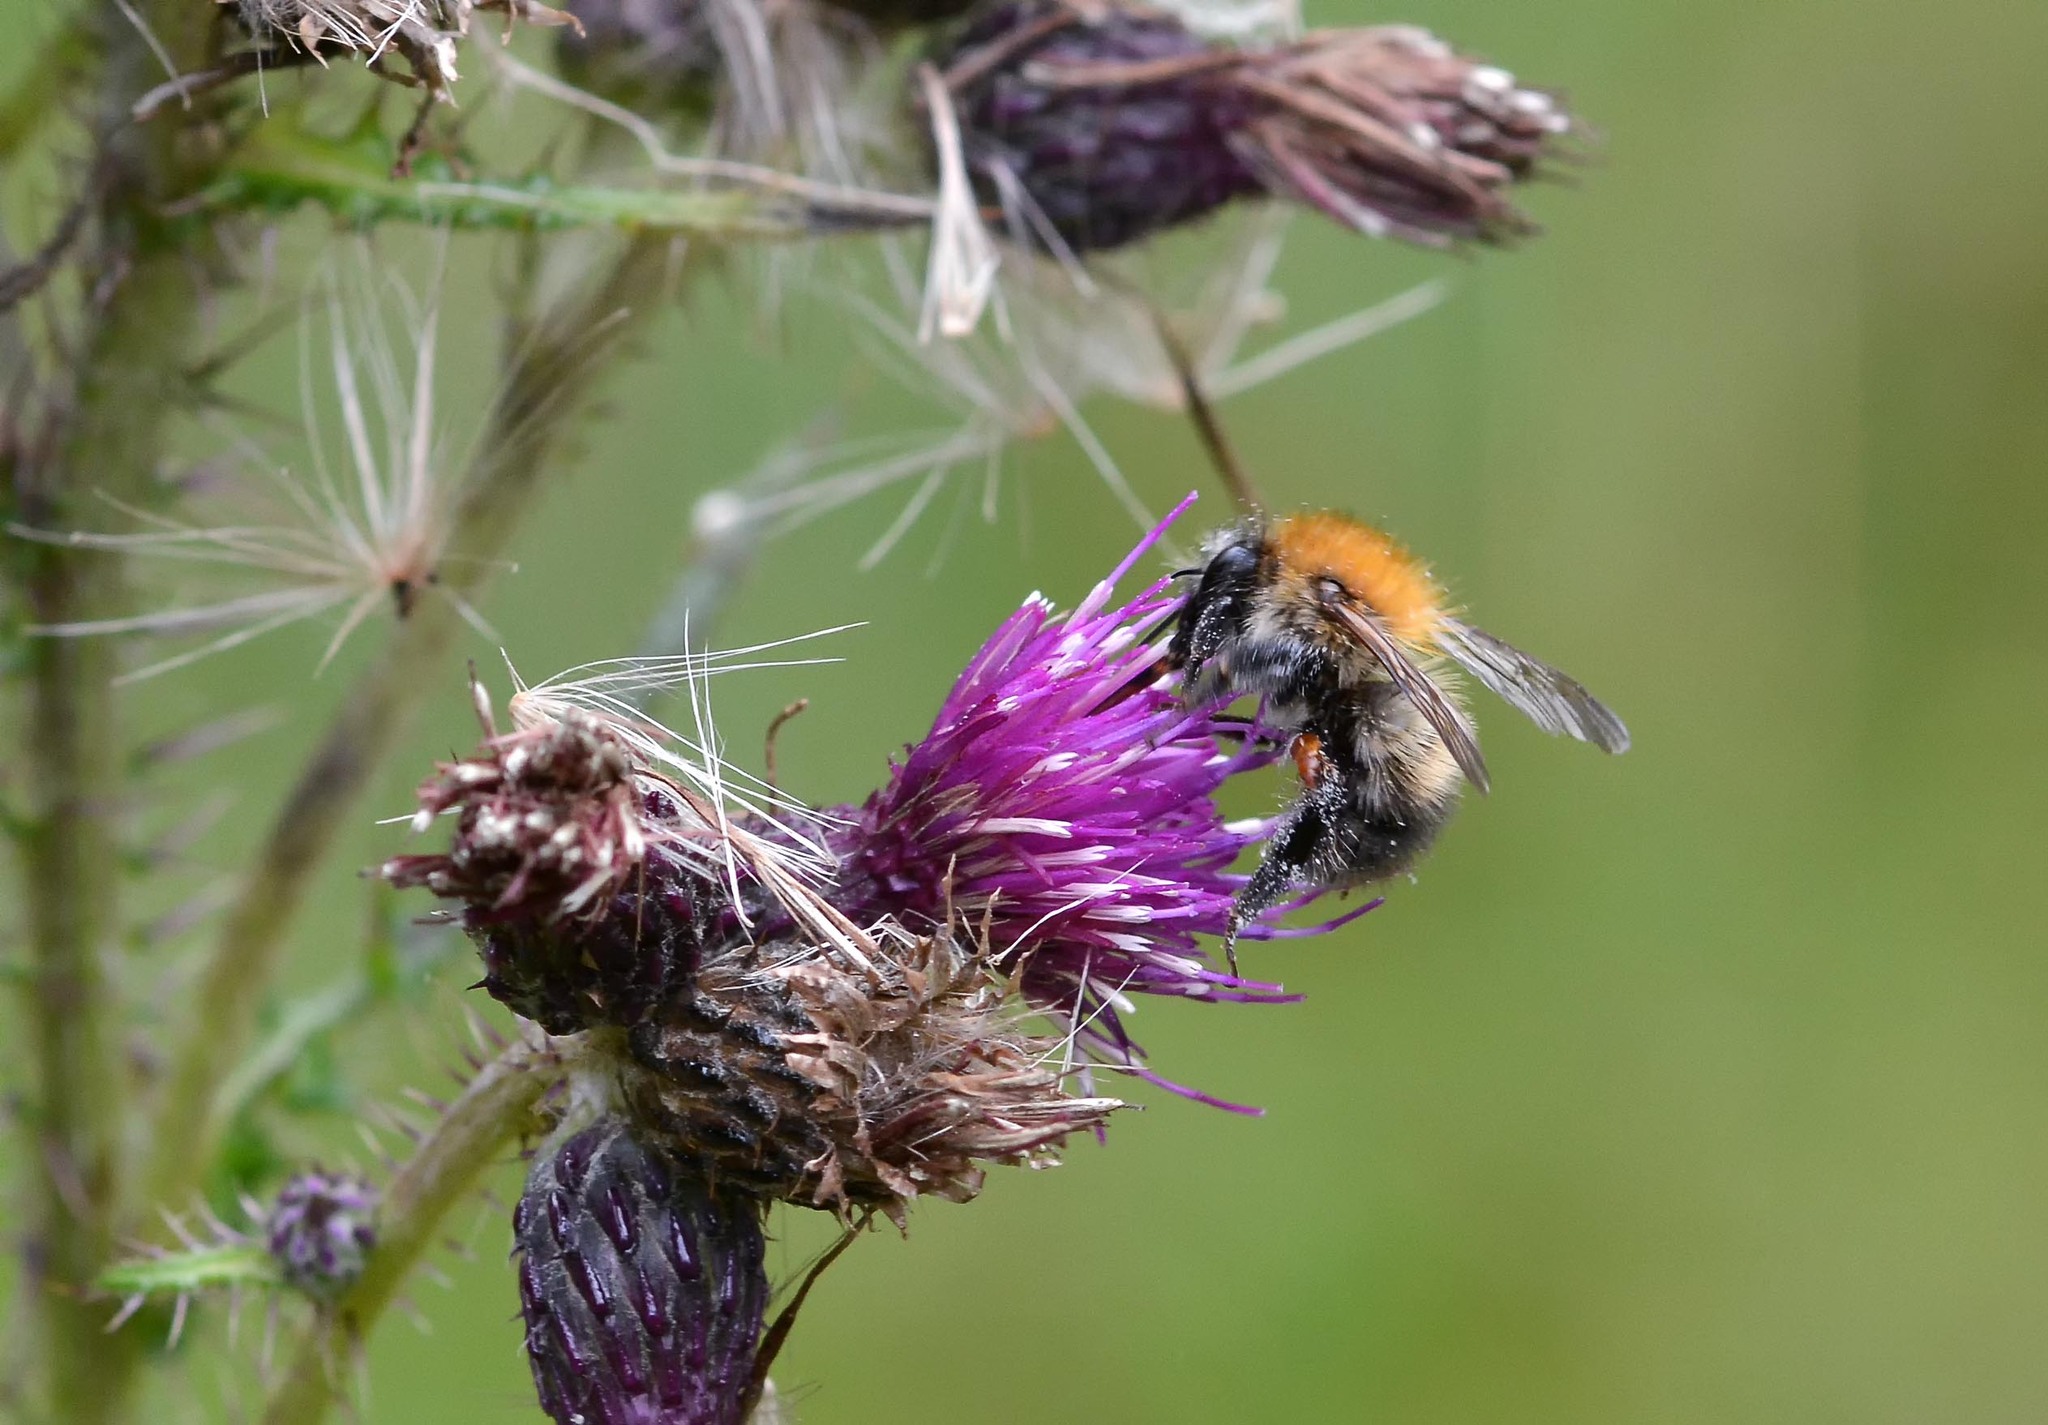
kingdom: Animalia
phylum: Arthropoda
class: Insecta
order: Hymenoptera
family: Apidae
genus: Bombus
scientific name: Bombus pascuorum
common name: Common carder bee
